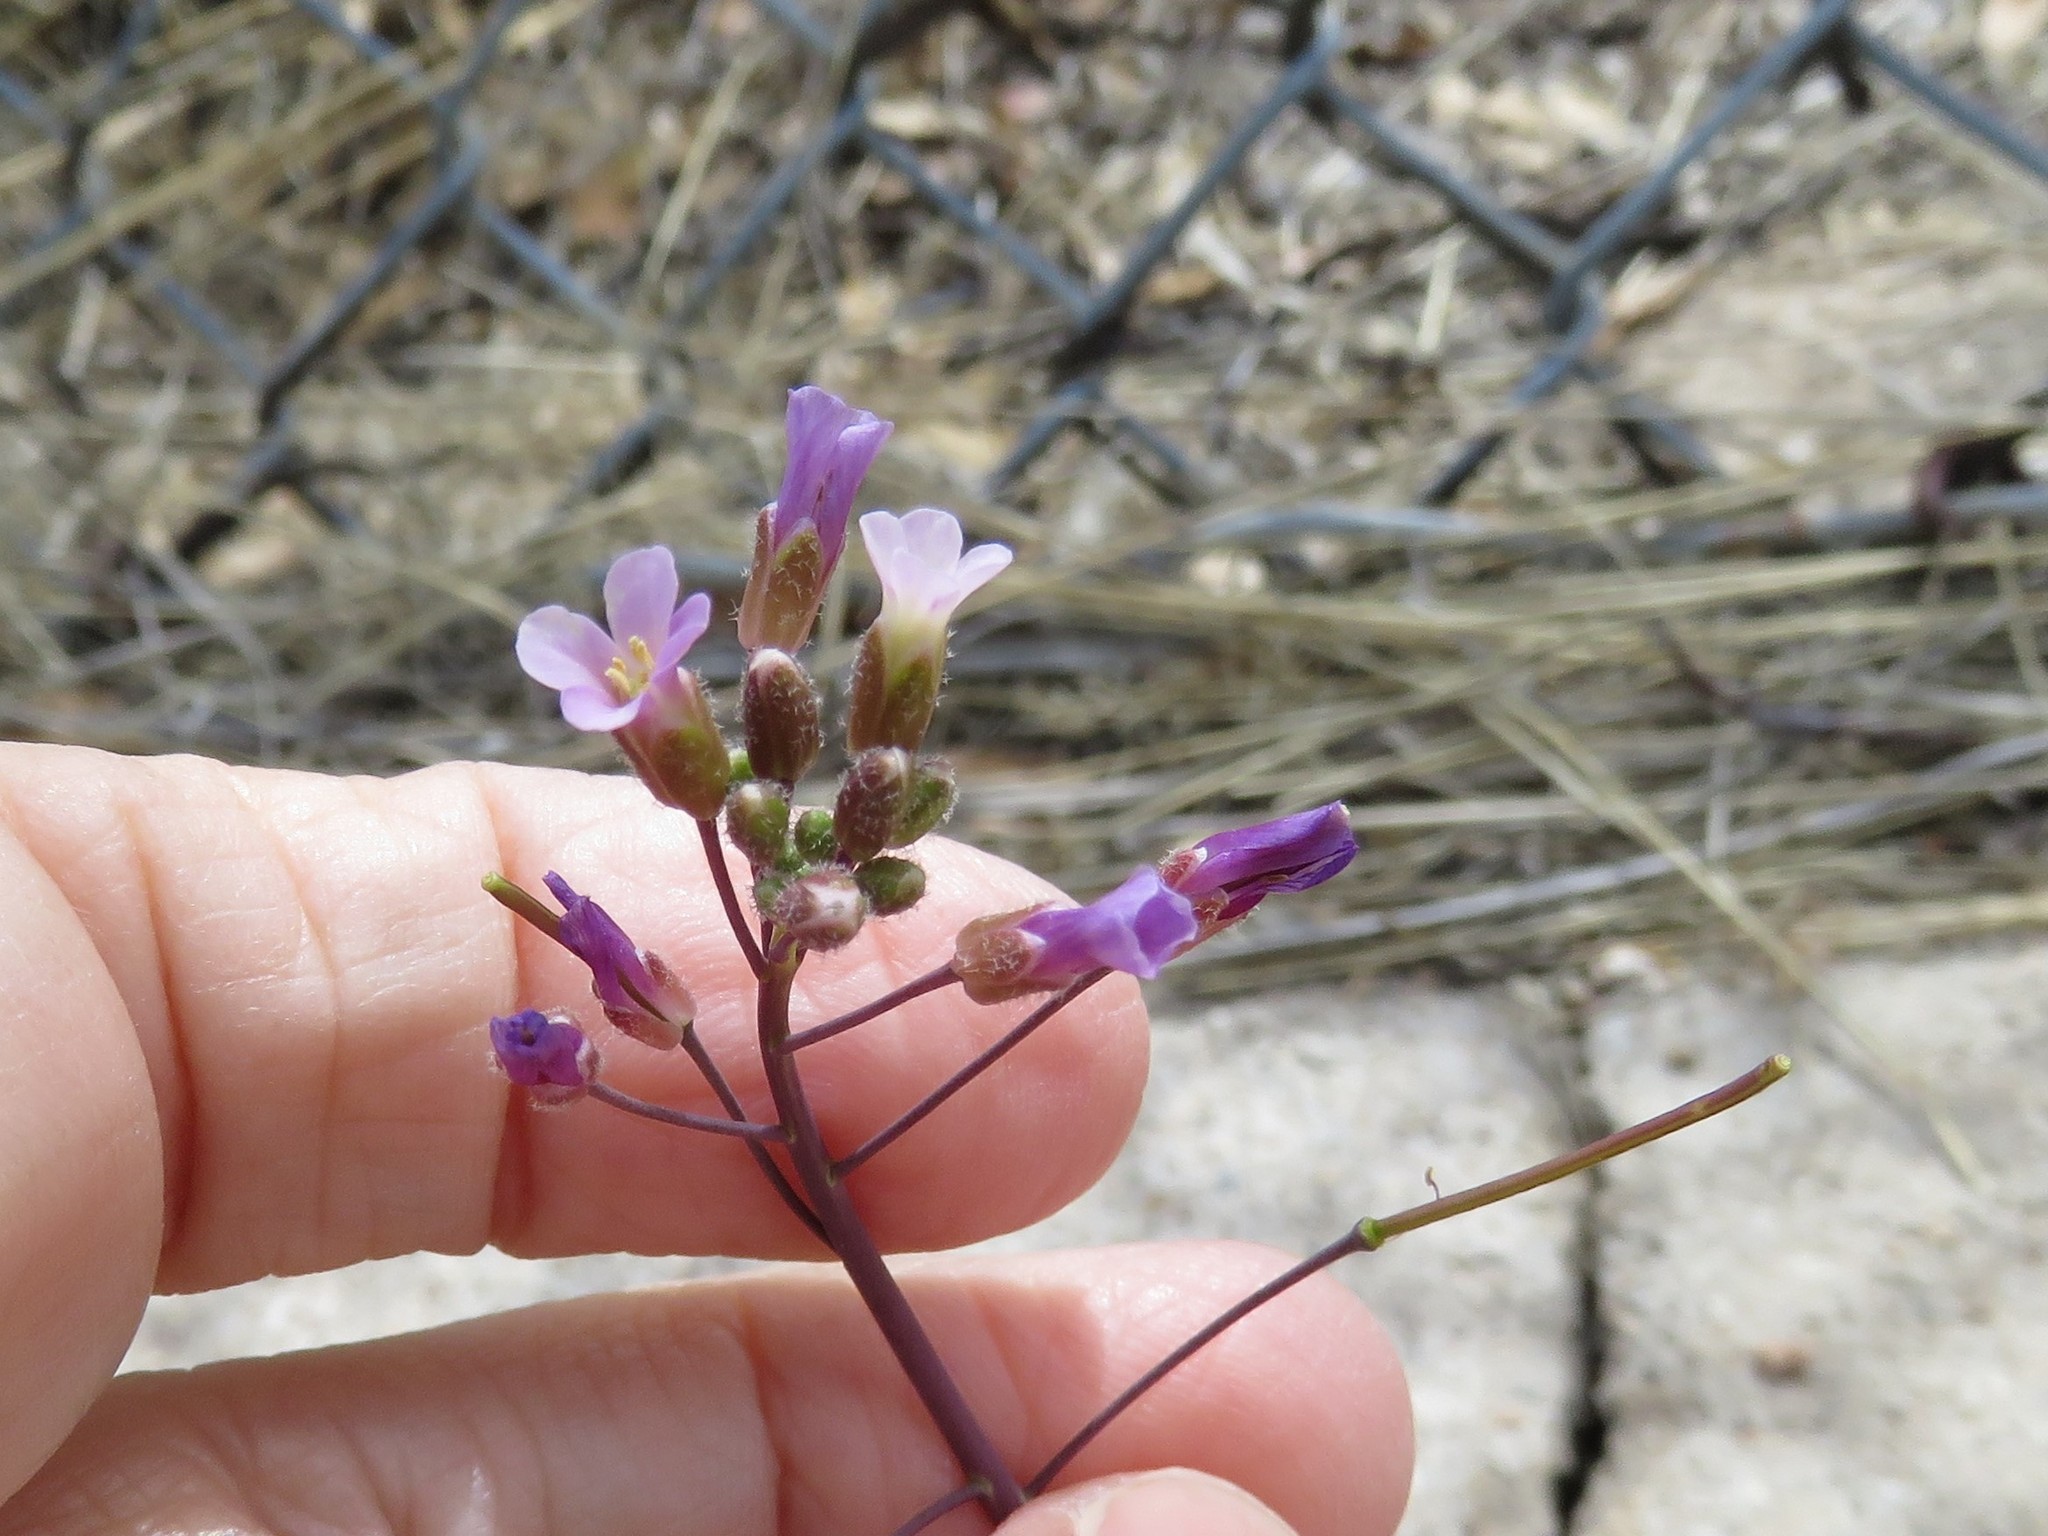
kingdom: Plantae
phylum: Tracheophyta
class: Magnoliopsida
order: Brassicales
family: Brassicaceae
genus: Boechera
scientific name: Boechera perennans
